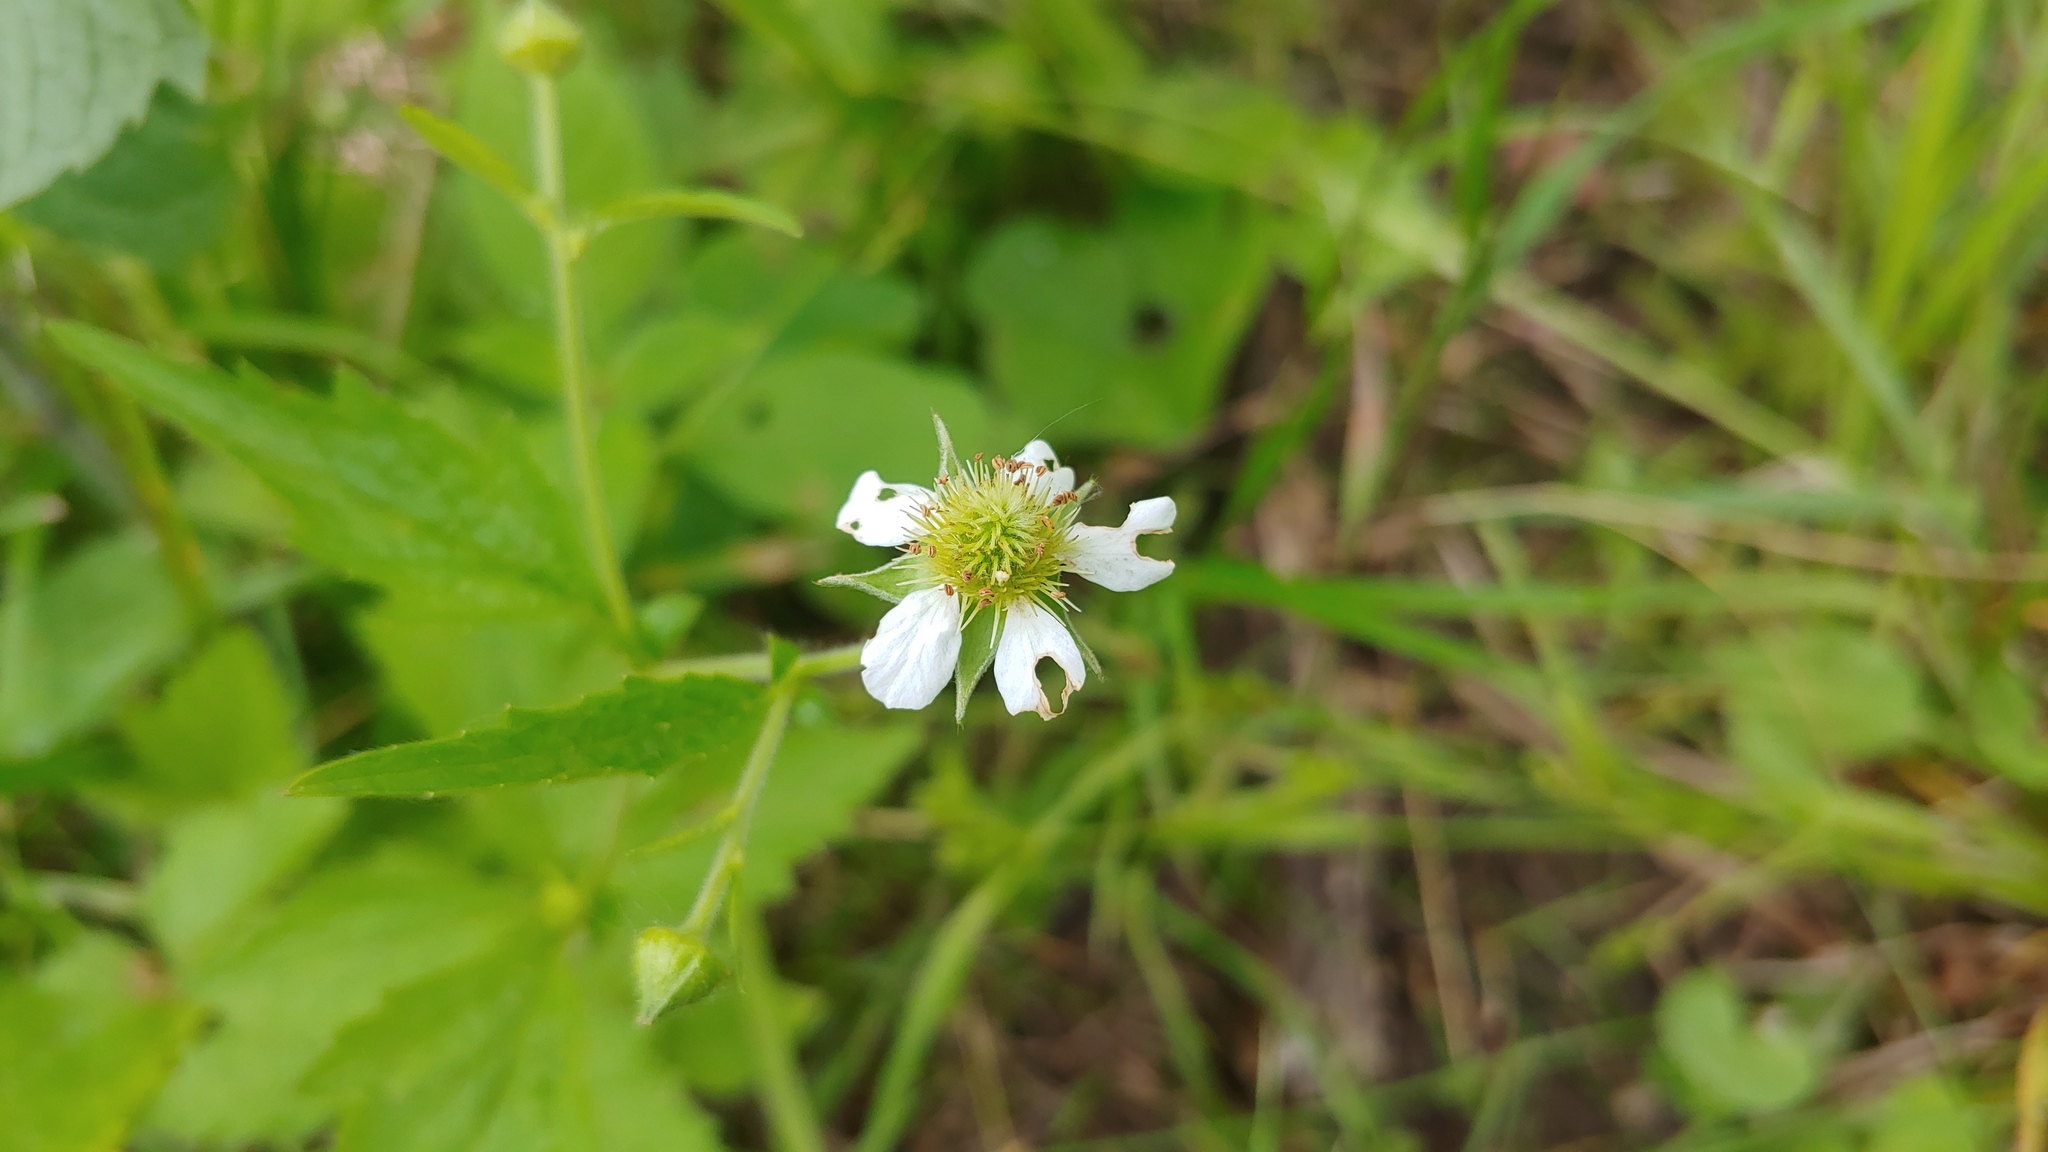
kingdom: Plantae
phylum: Tracheophyta
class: Magnoliopsida
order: Rosales
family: Rosaceae
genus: Geum
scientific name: Geum canadense
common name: White avens
